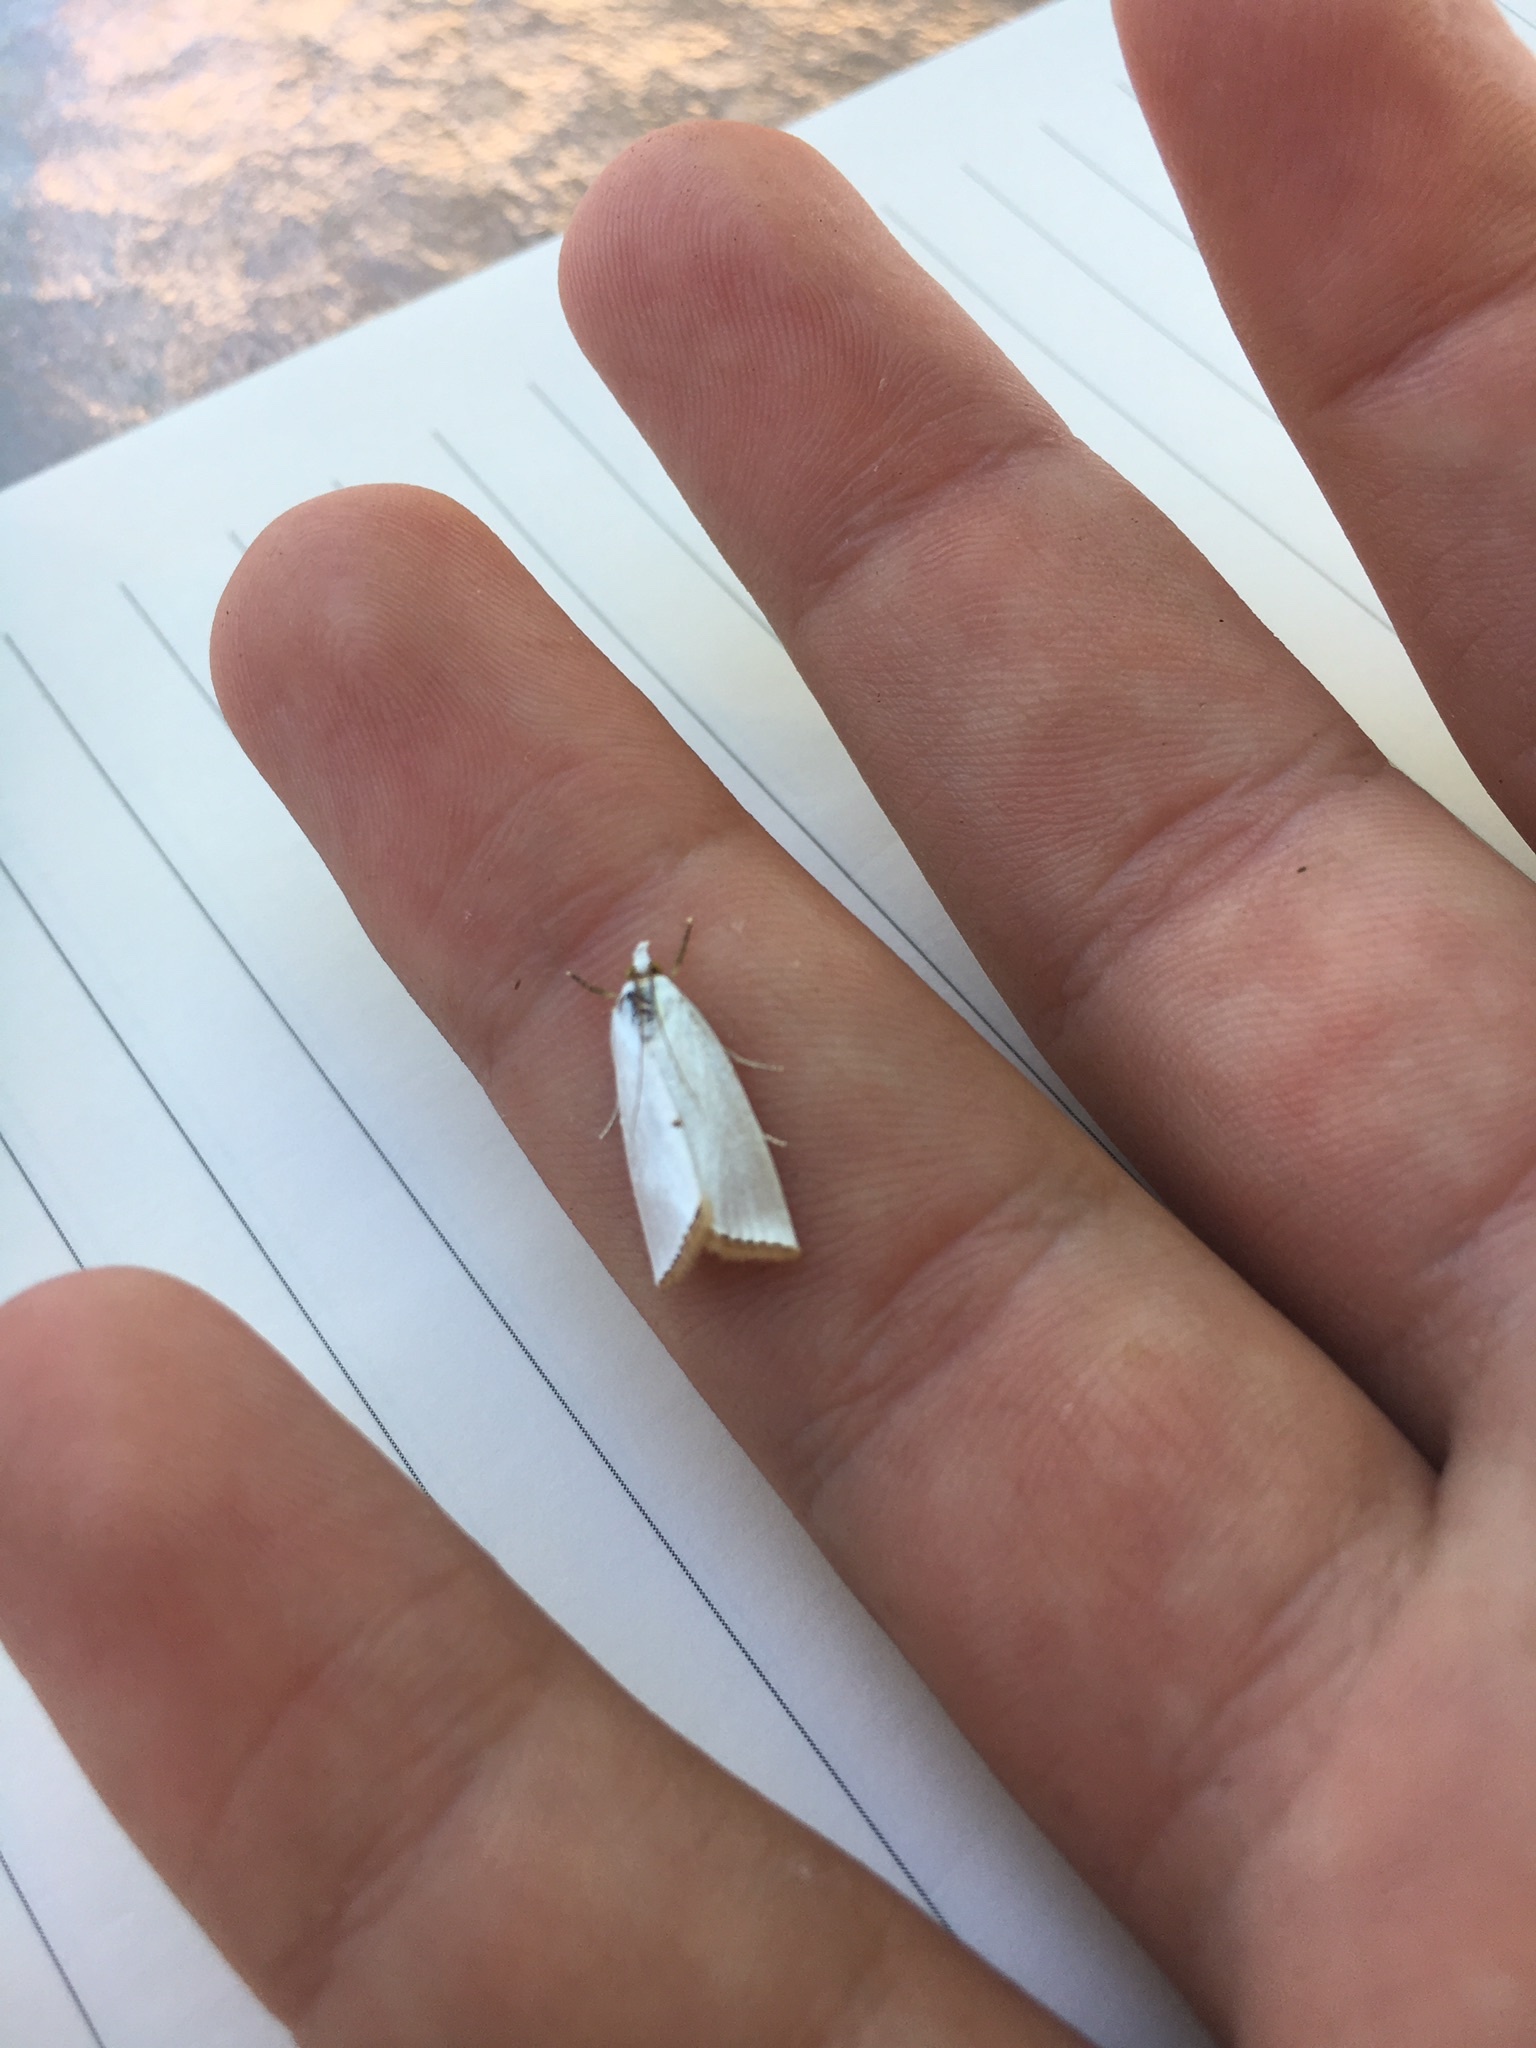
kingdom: Animalia
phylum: Arthropoda
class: Insecta
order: Lepidoptera
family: Crambidae
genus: Argyria
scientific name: Argyria nivalis
